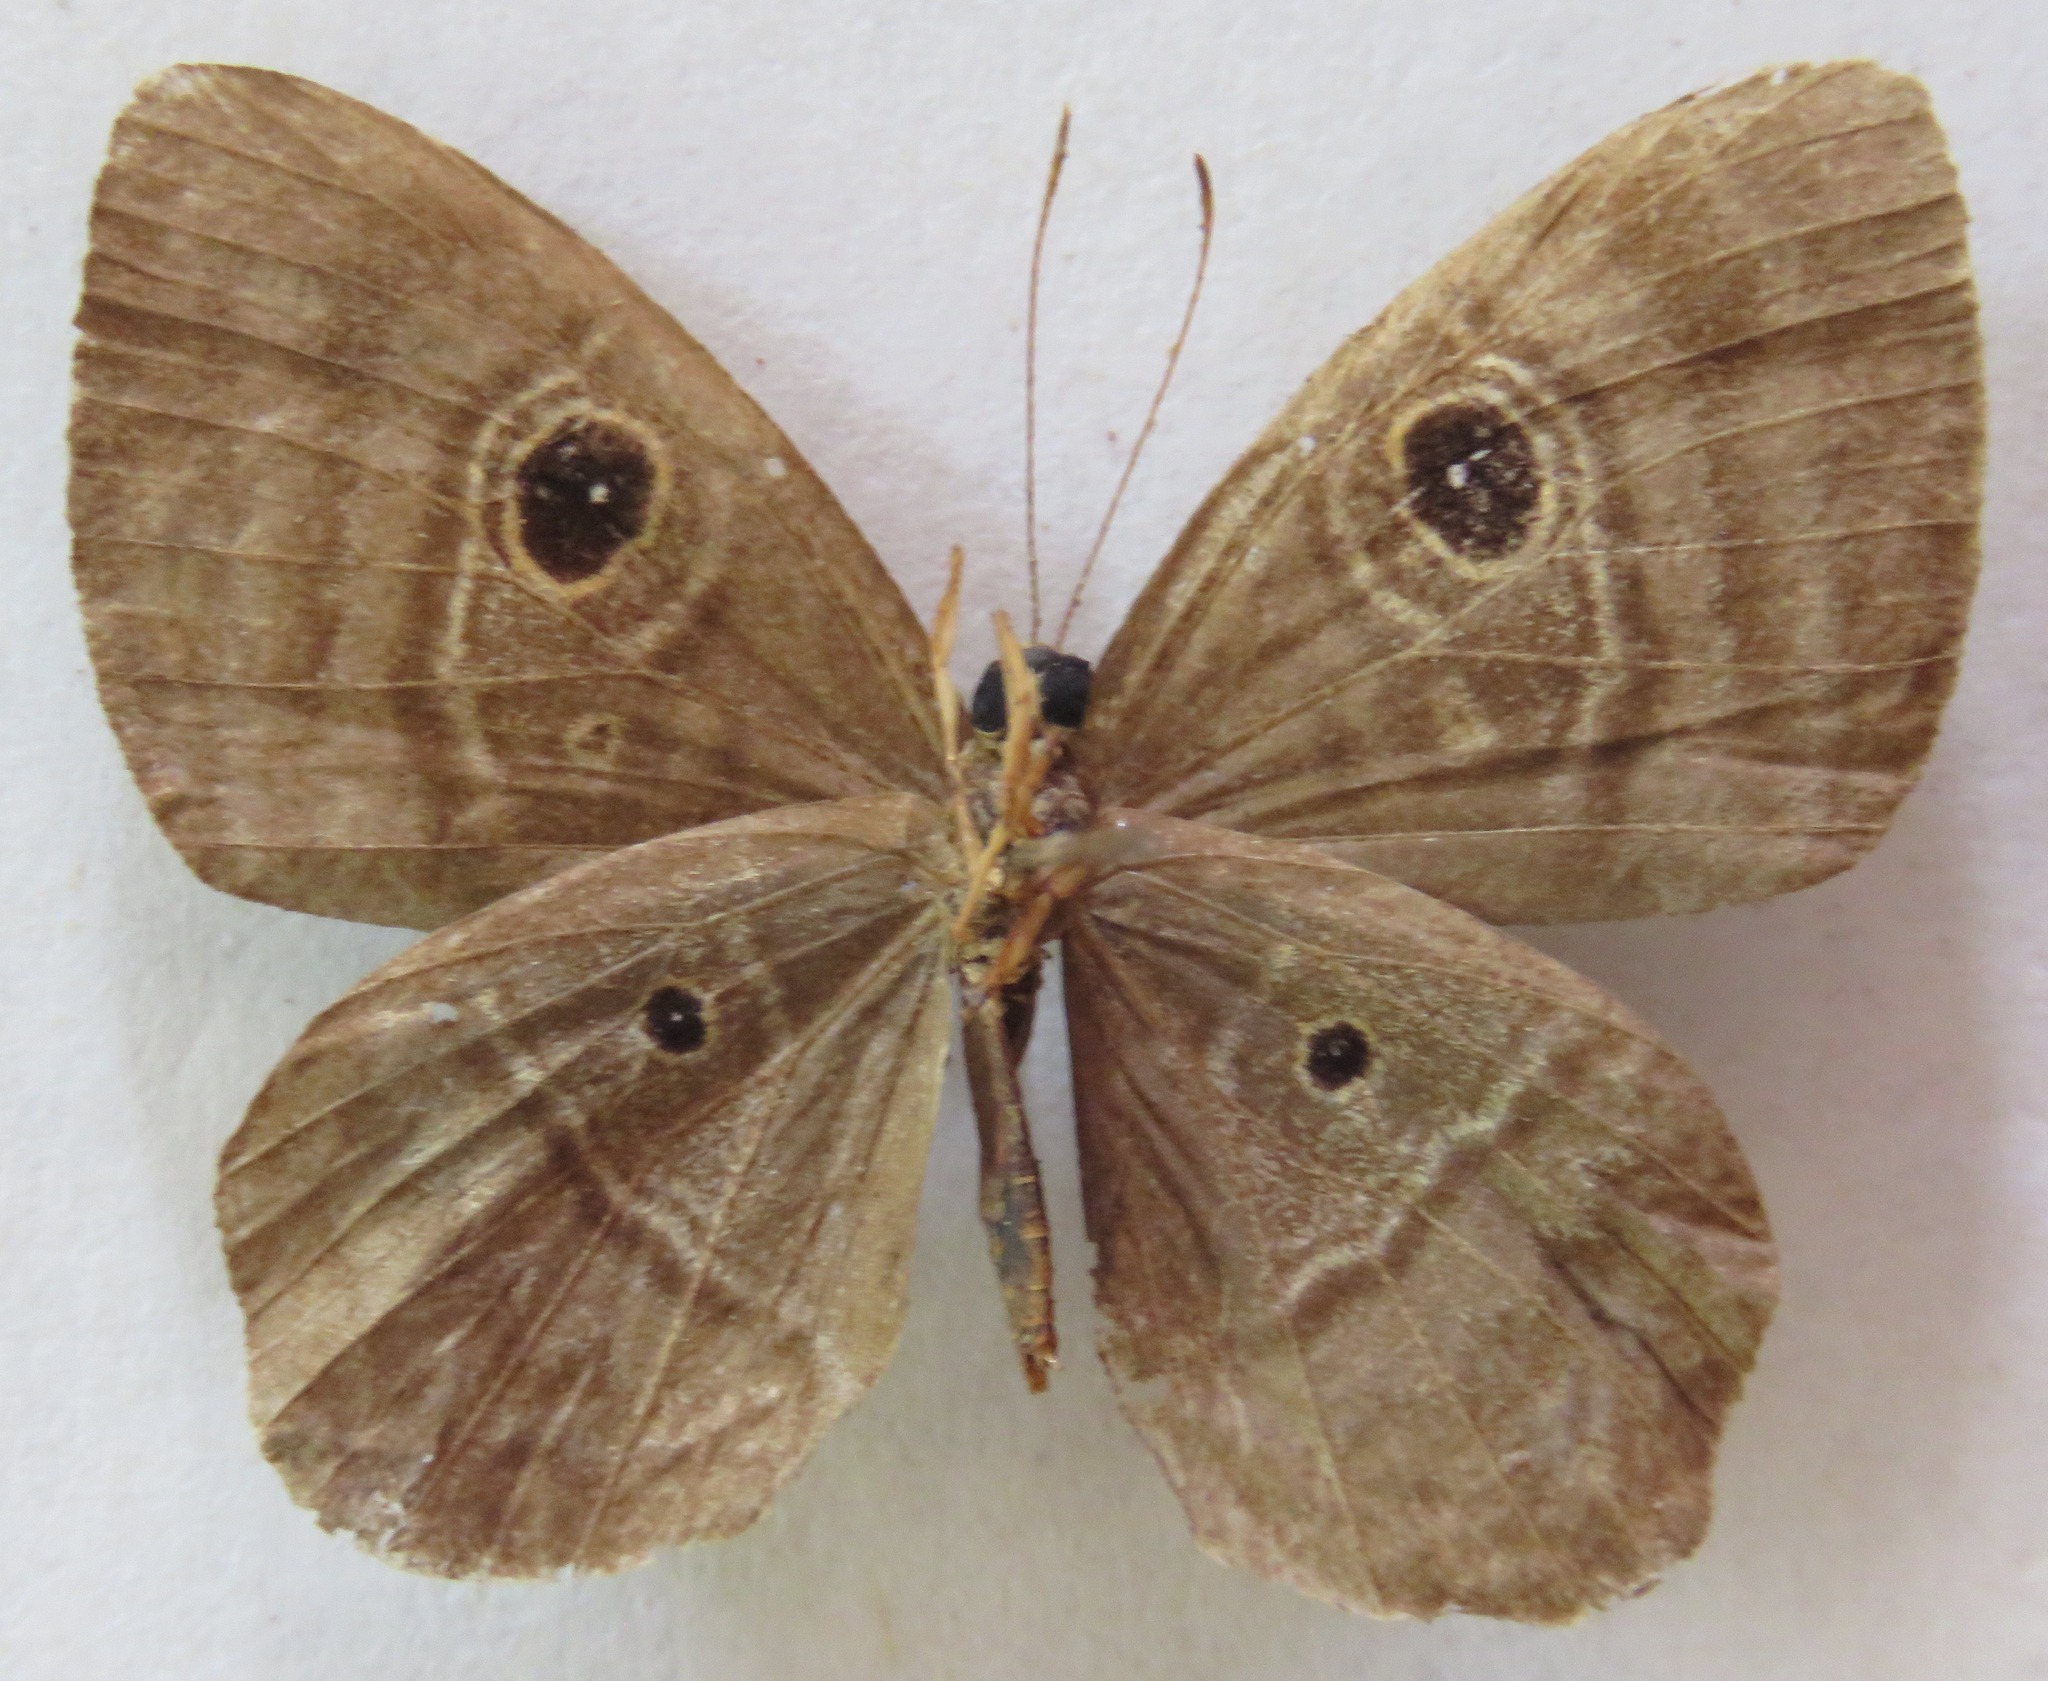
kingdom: Animalia
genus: Mesosemia
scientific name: Mesosemia lamachus
